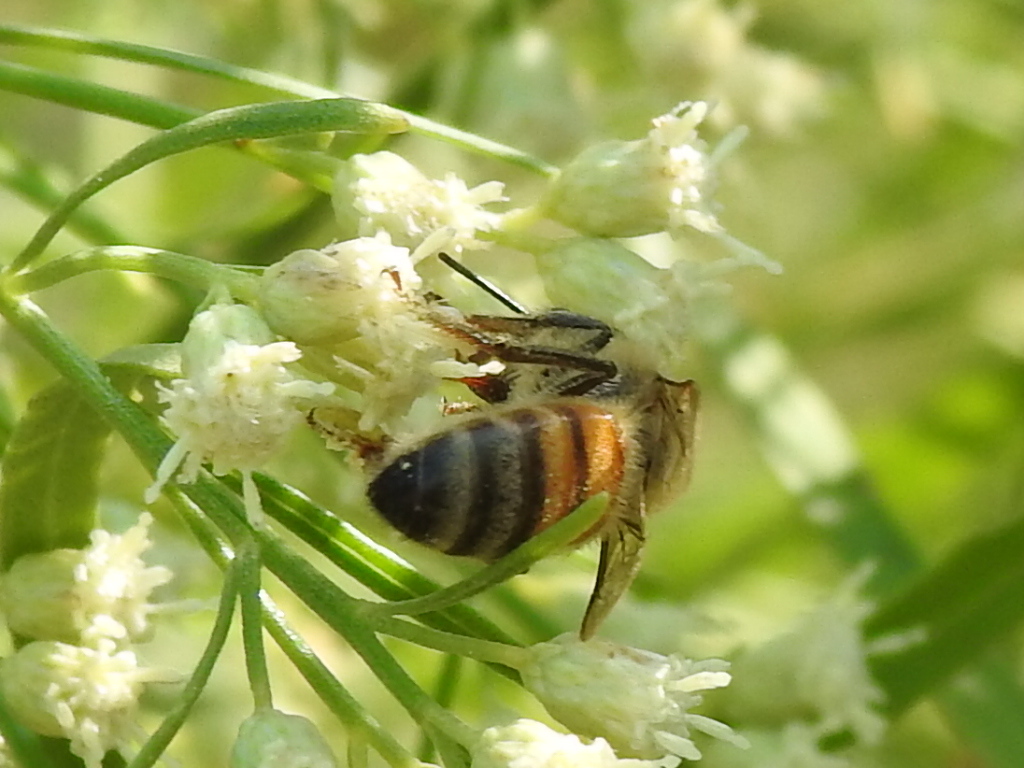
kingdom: Animalia
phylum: Arthropoda
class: Insecta
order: Hymenoptera
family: Apidae
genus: Apis
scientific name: Apis mellifera
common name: Honey bee
